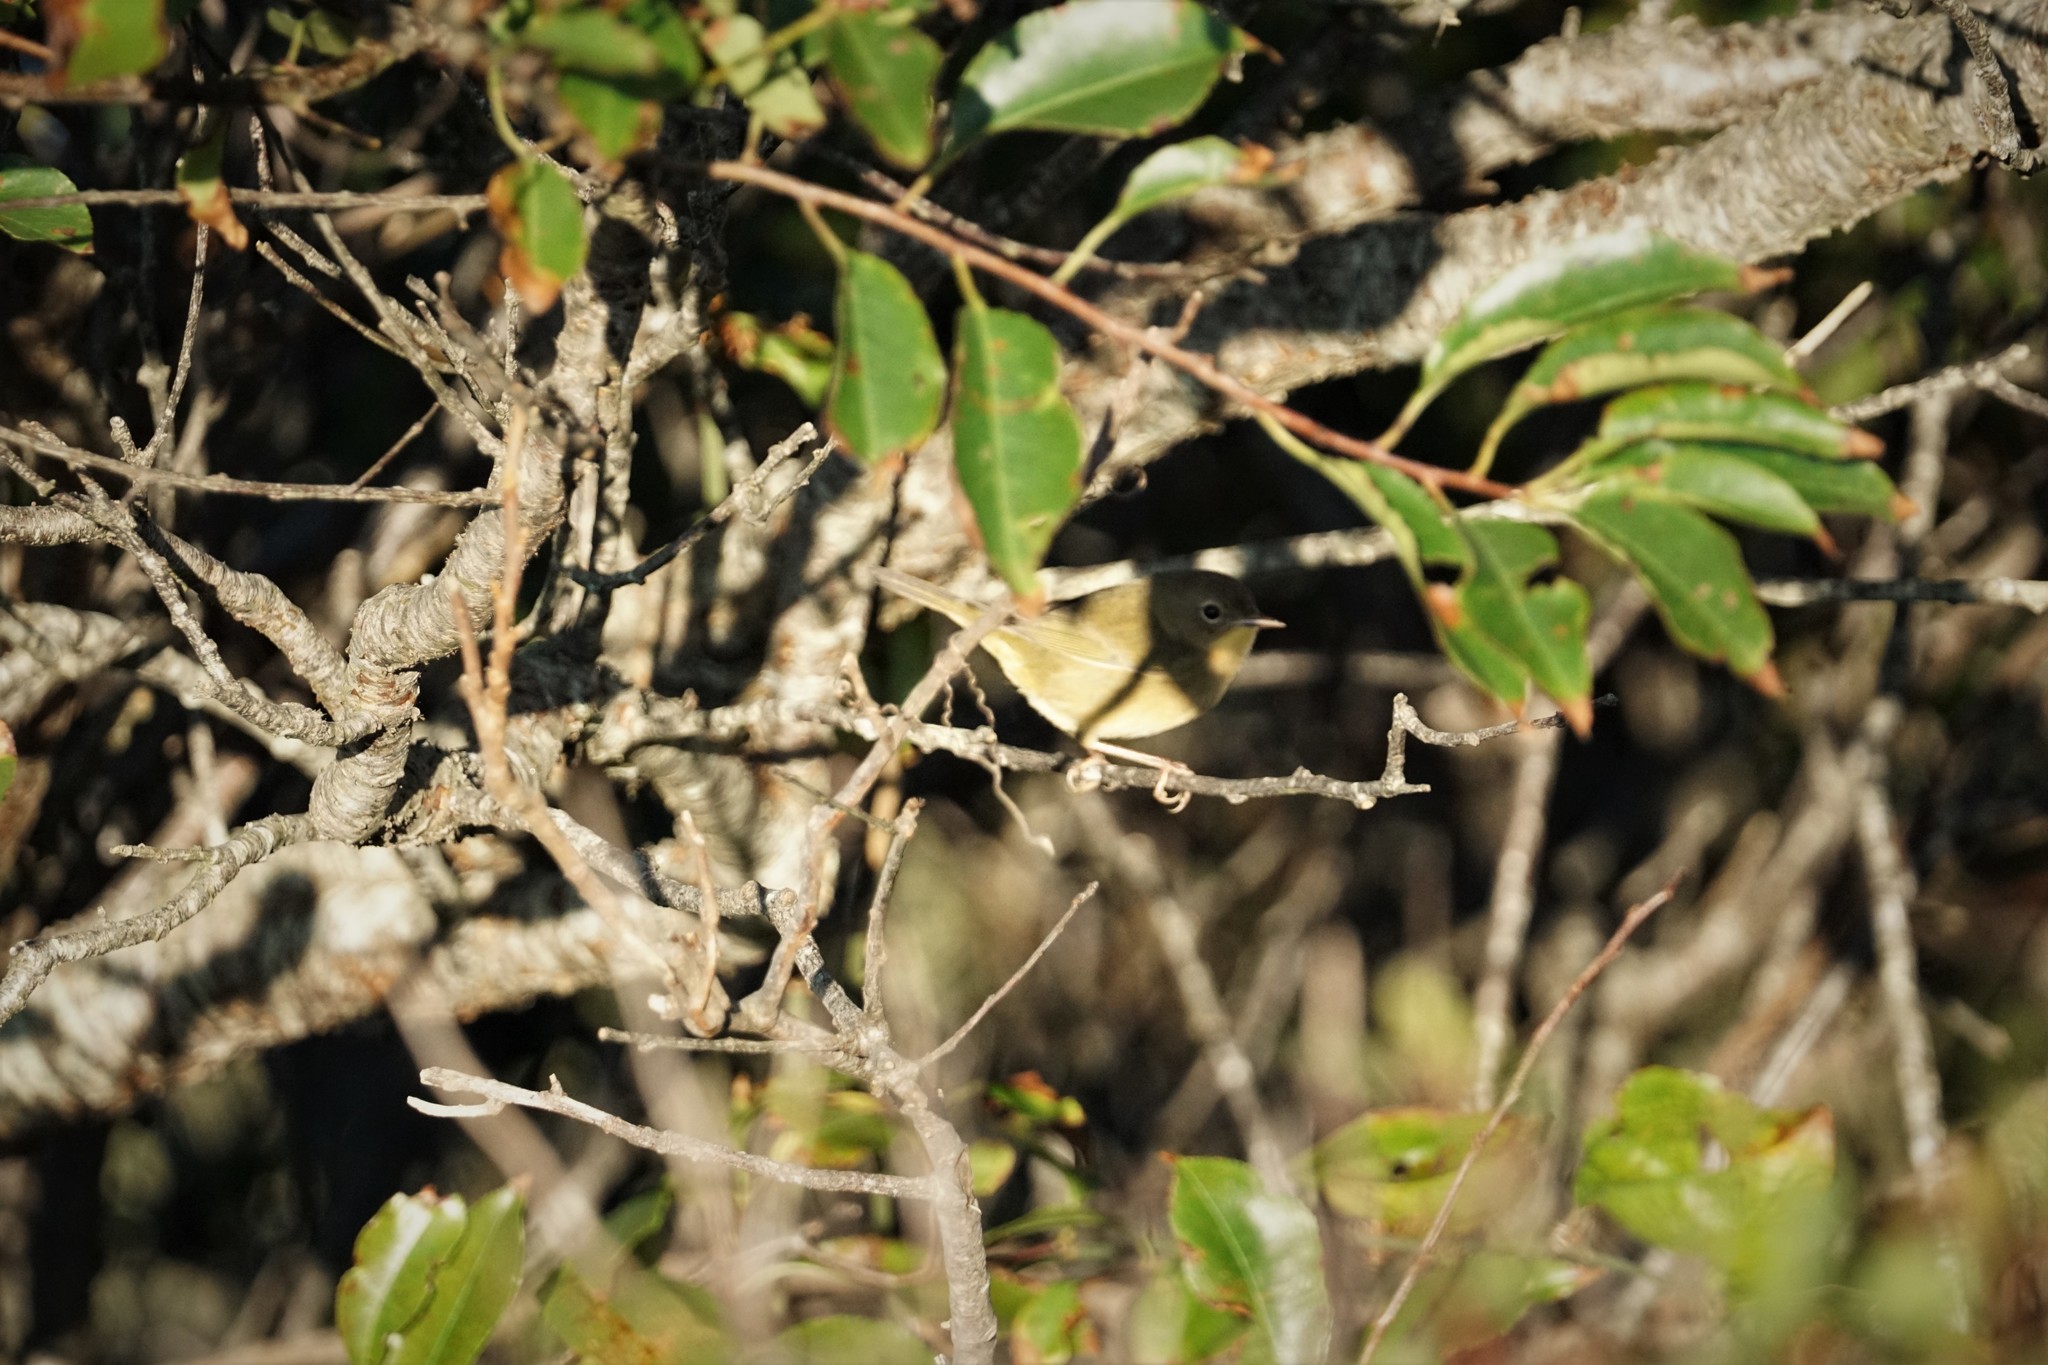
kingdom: Animalia
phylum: Chordata
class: Aves
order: Passeriformes
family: Parulidae
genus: Geothlypis
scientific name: Geothlypis trichas
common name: Common yellowthroat
